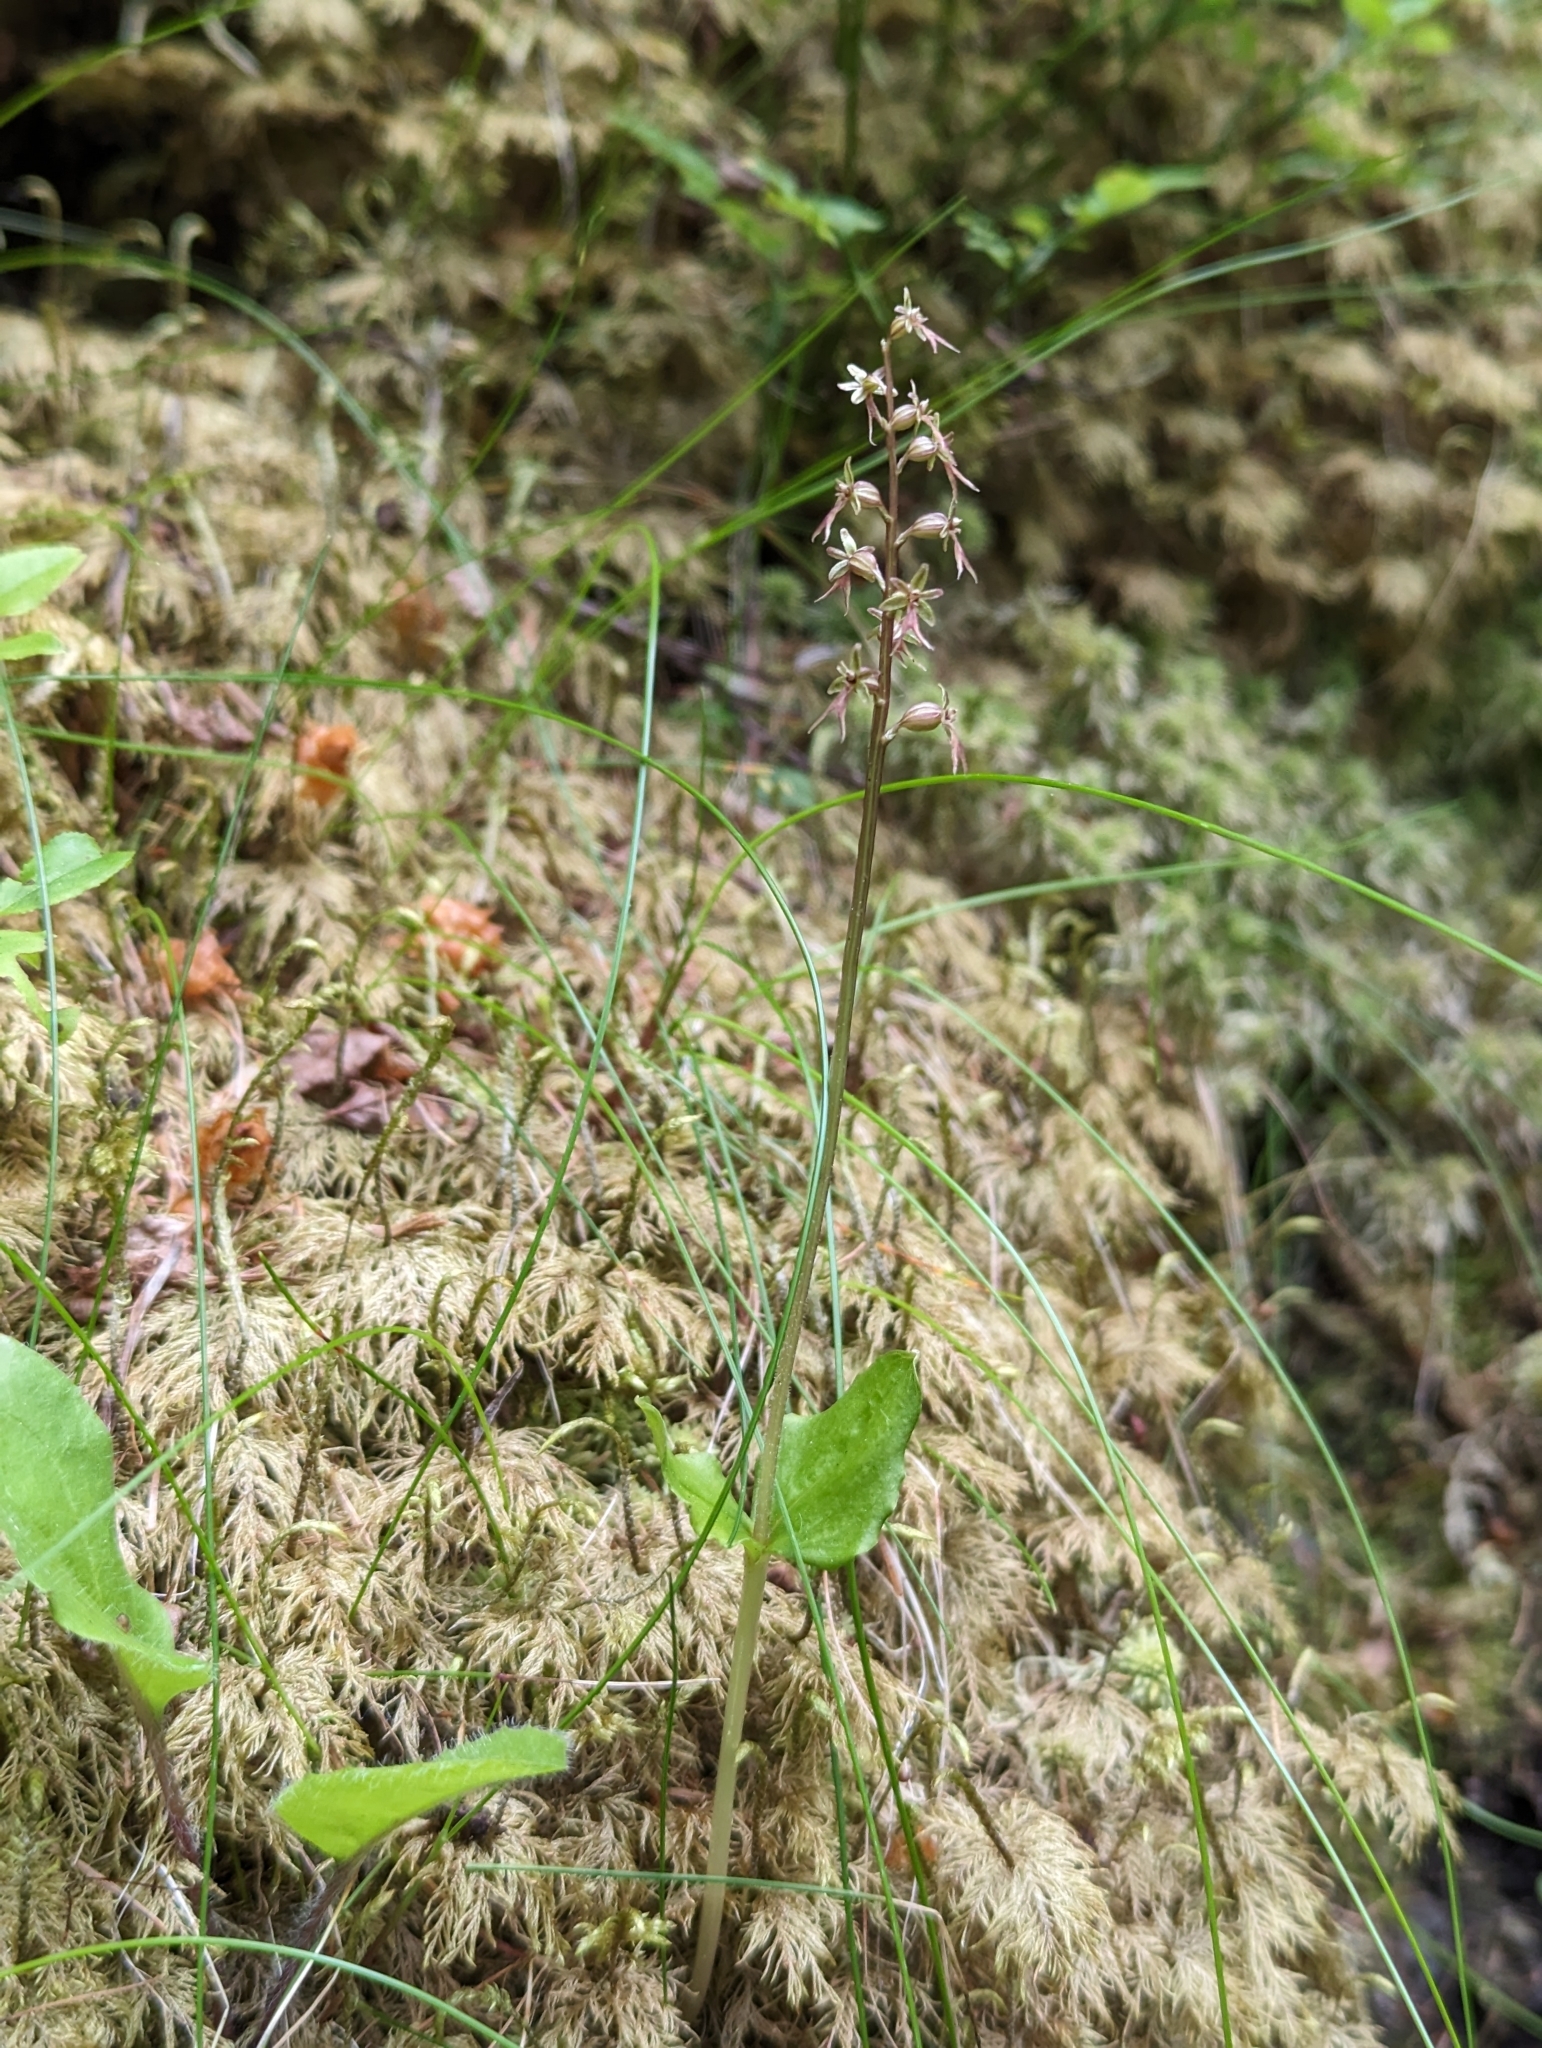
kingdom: Plantae
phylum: Tracheophyta
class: Liliopsida
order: Asparagales
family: Orchidaceae
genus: Neottia
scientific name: Neottia cordata
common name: Lesser twayblade
